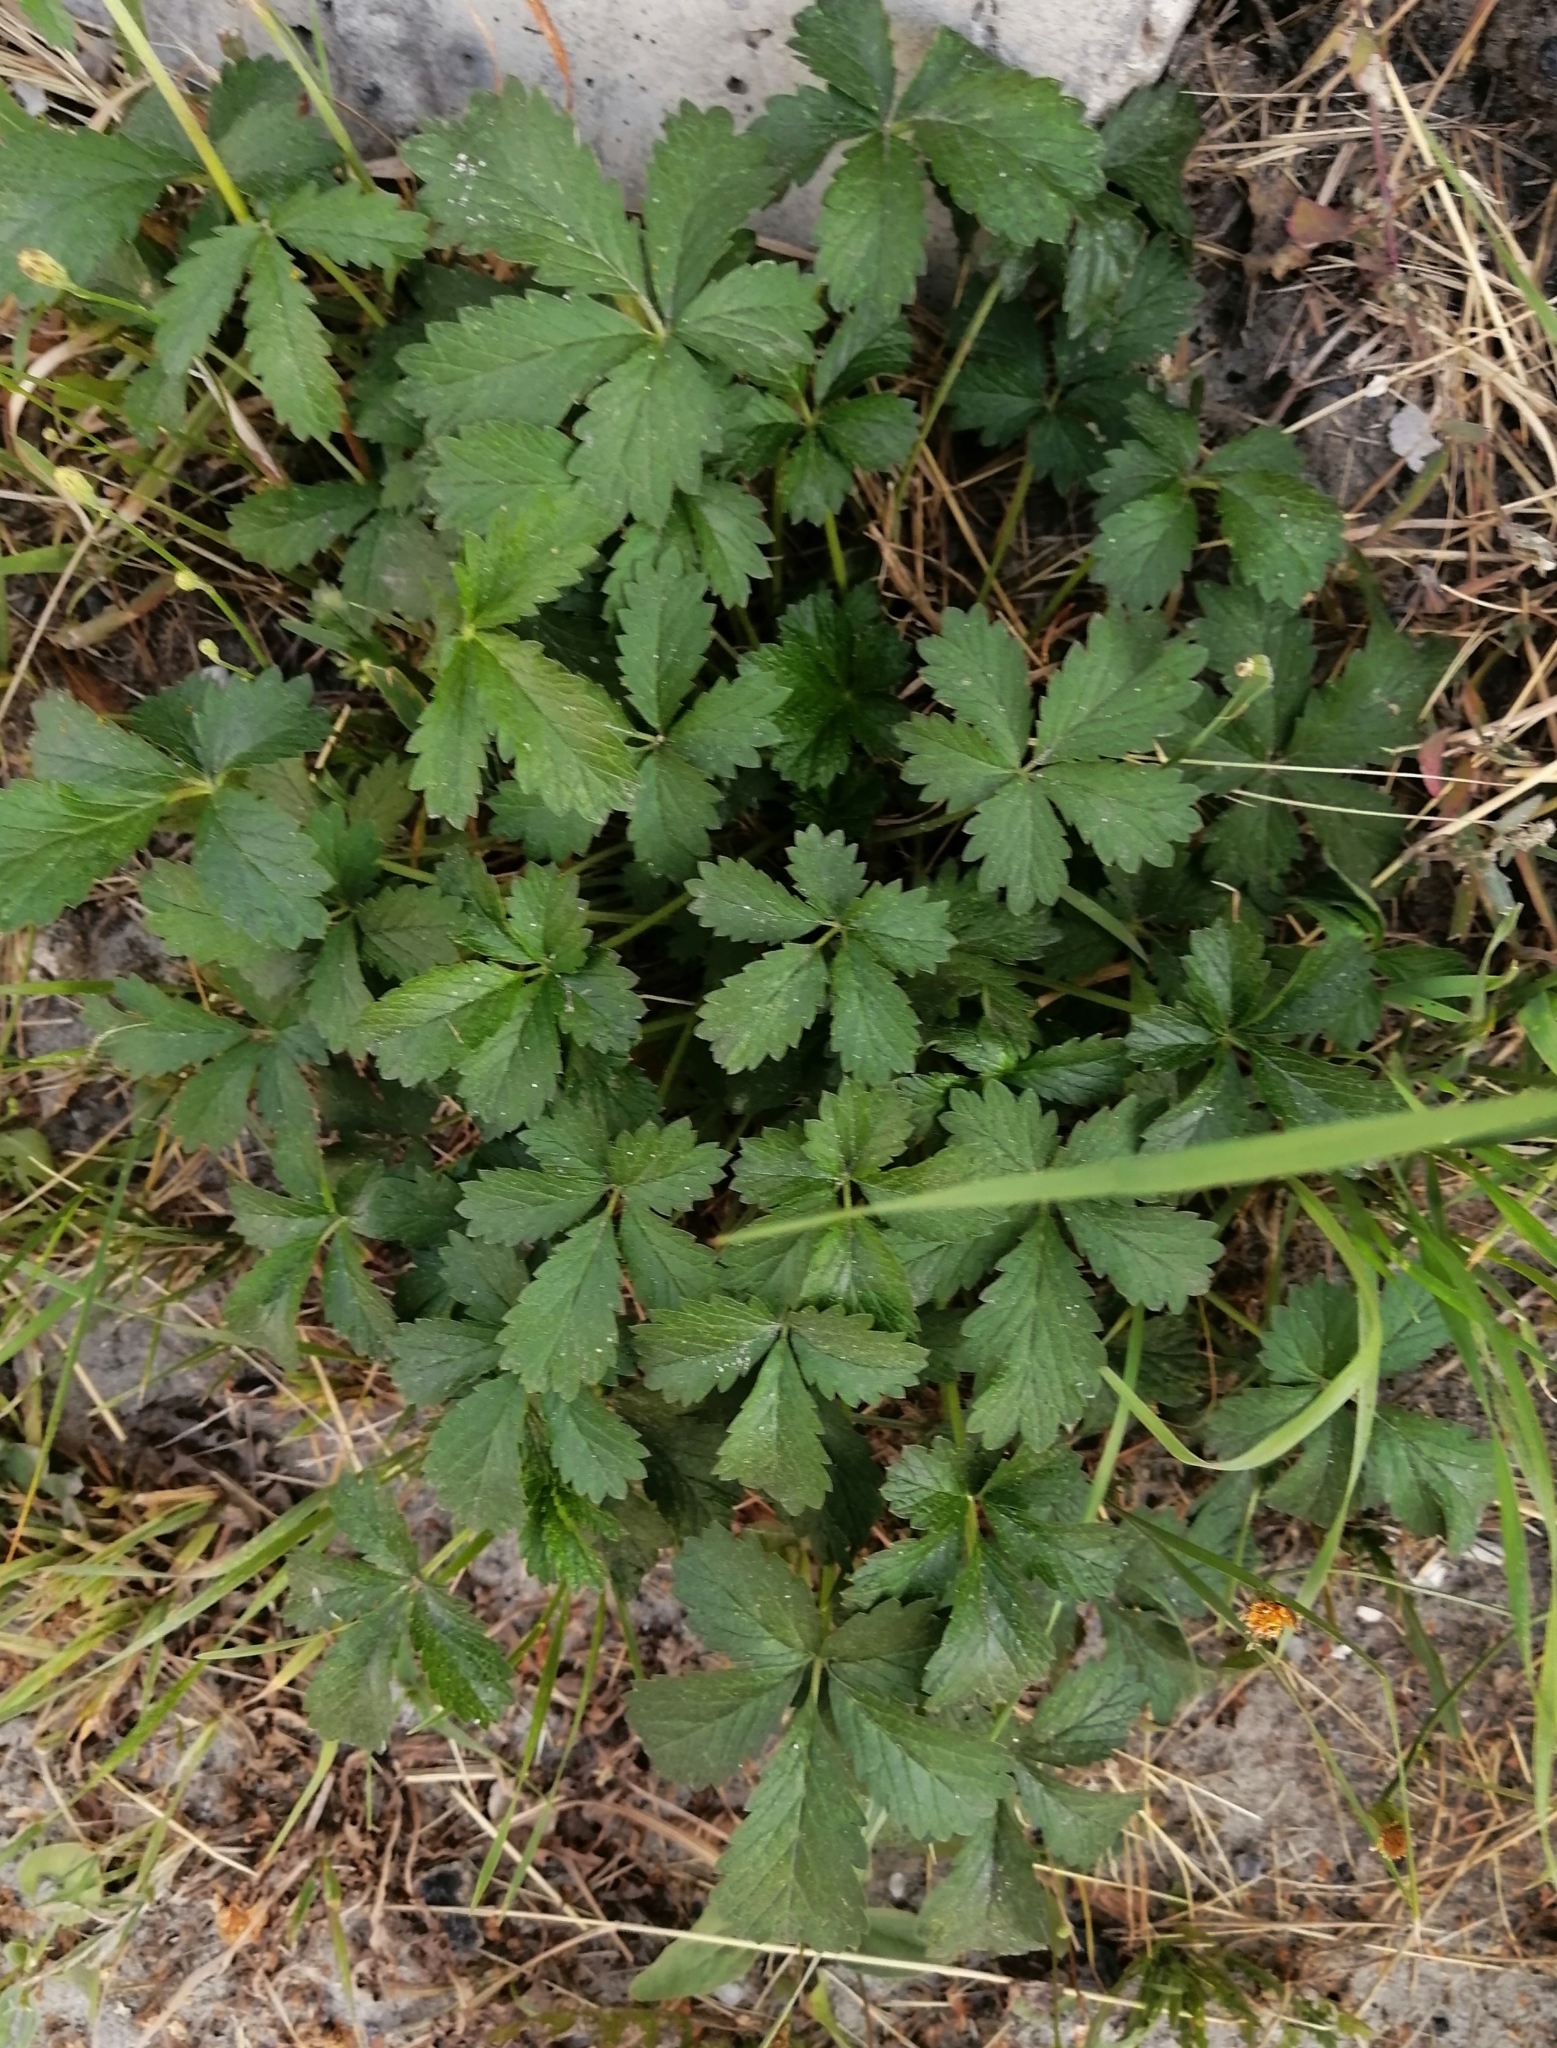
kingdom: Plantae
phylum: Tracheophyta
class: Magnoliopsida
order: Rosales
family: Rosaceae
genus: Potentilla
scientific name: Potentilla intermedia
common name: Downy cinquefoil
